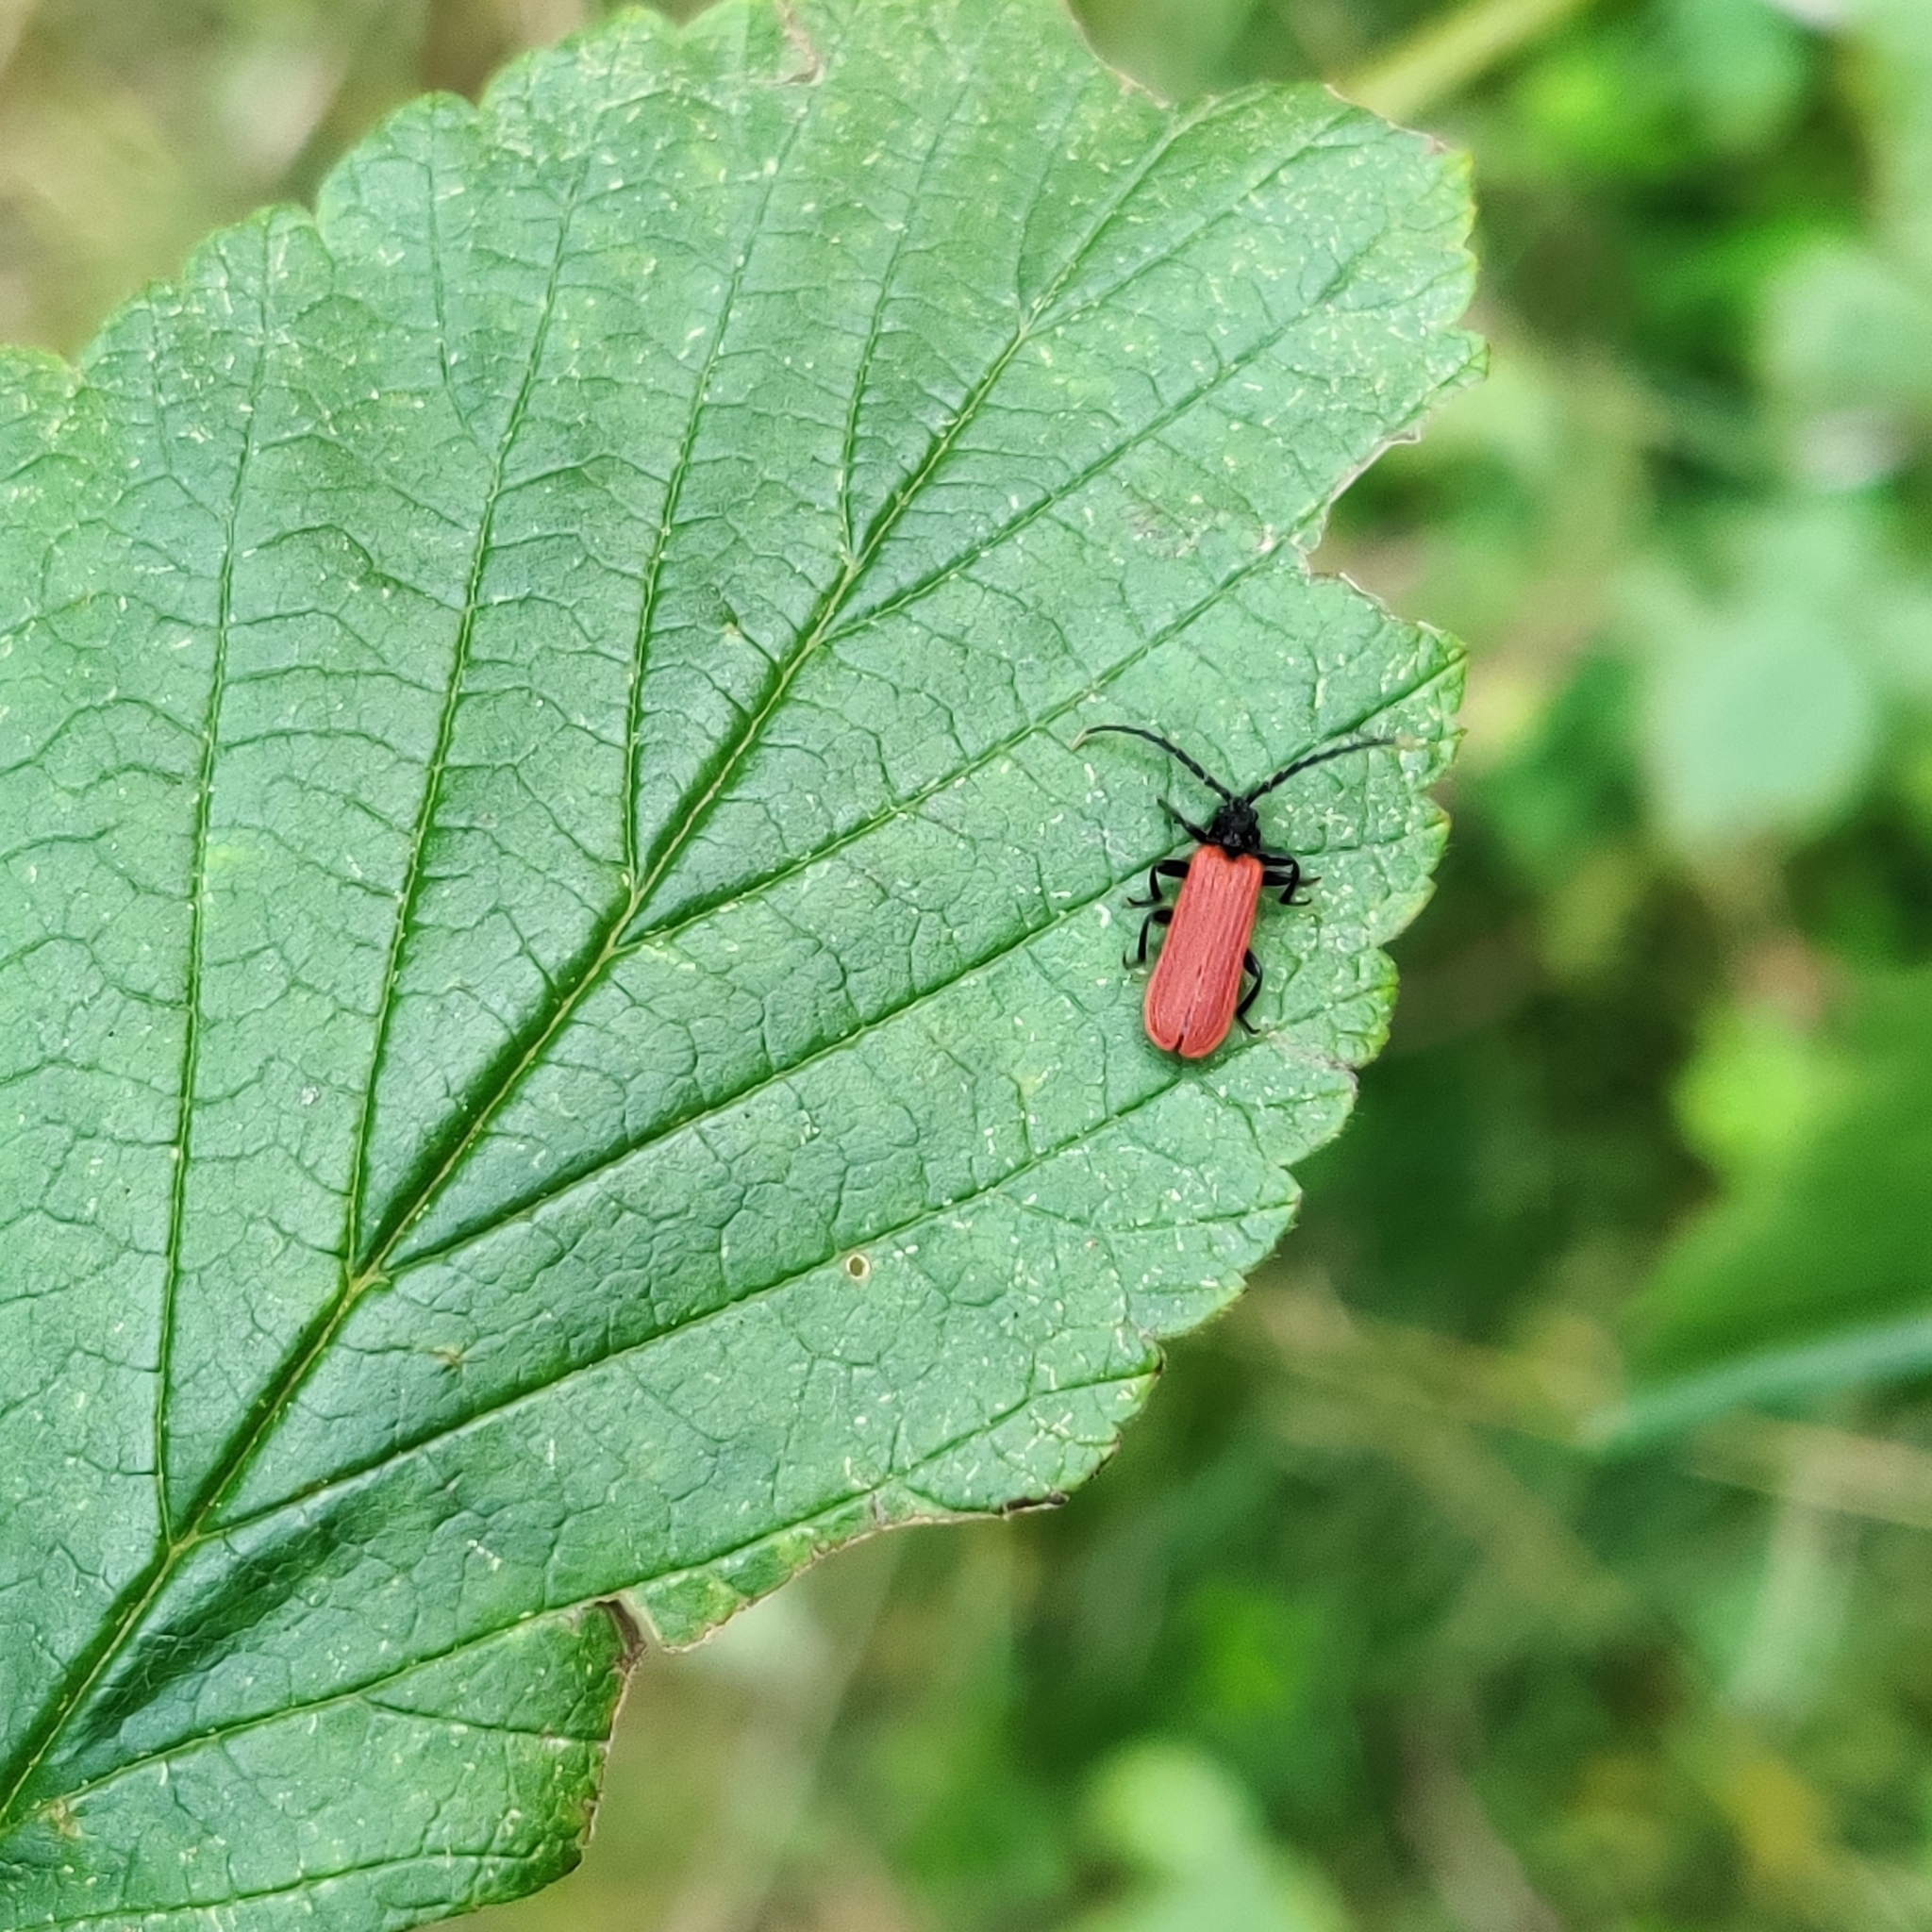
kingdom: Animalia
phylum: Arthropoda
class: Insecta
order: Coleoptera
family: Lycidae
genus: Platycis
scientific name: Platycis minutus
